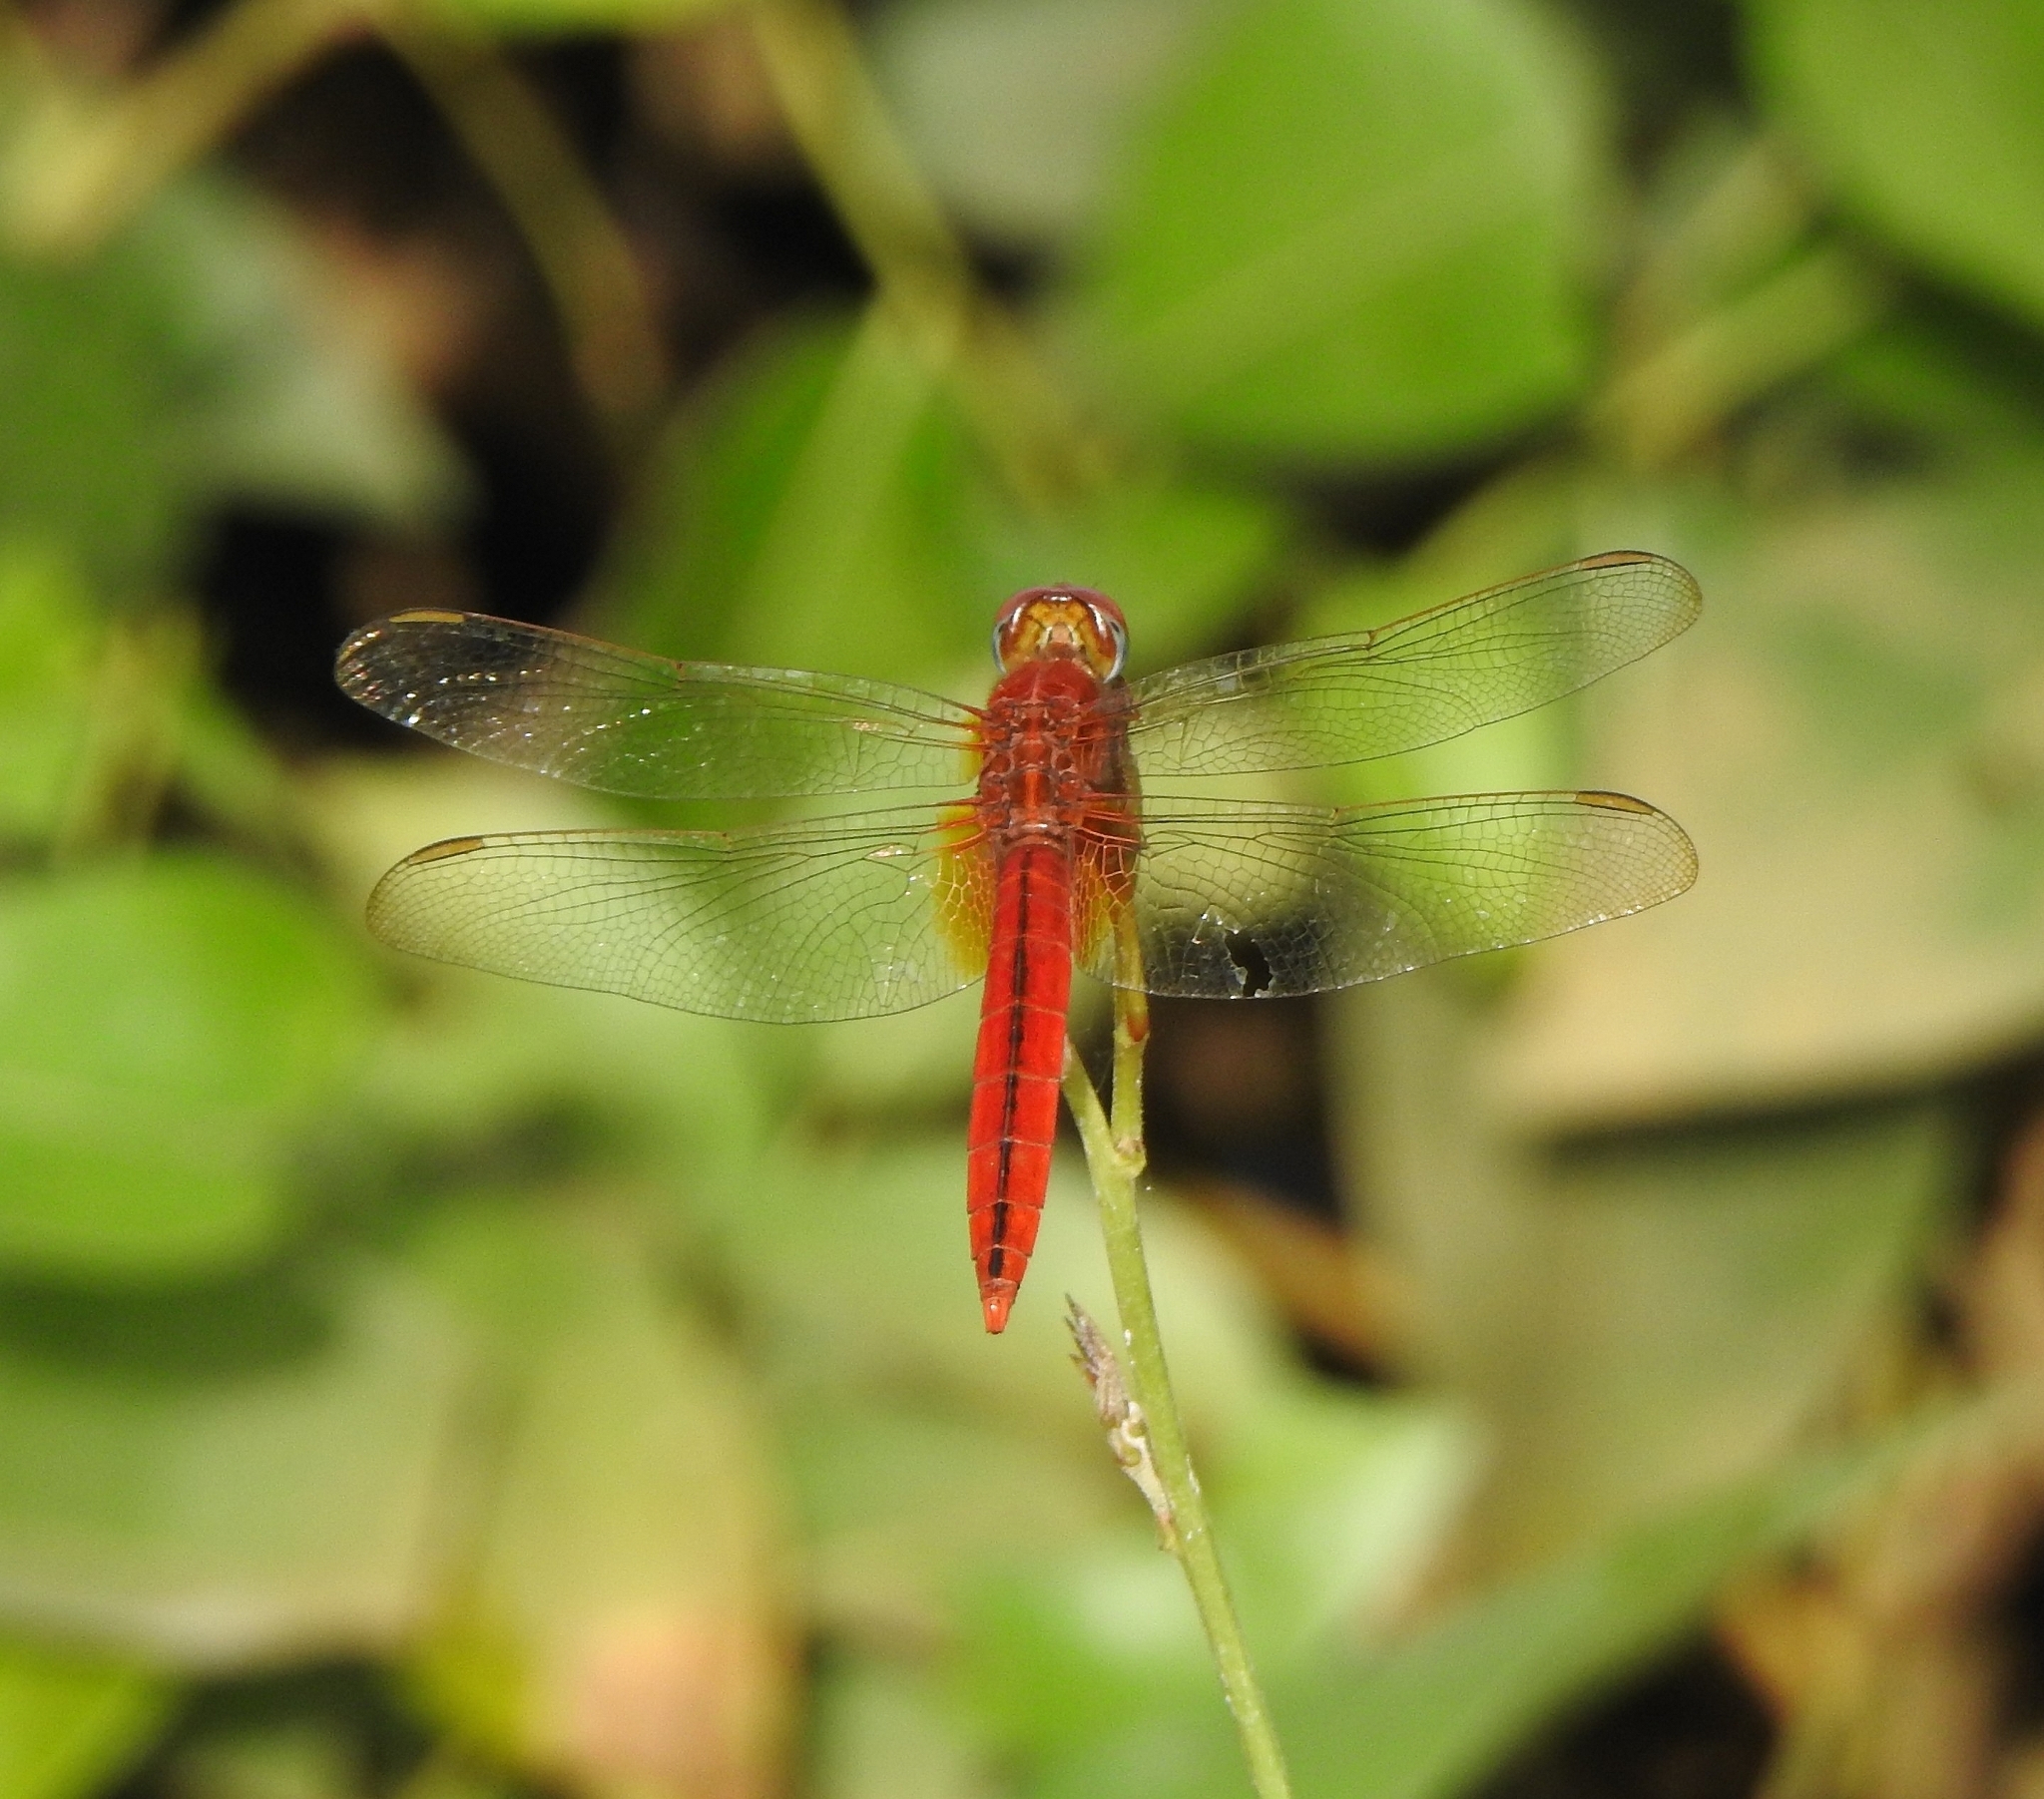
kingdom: Animalia
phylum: Arthropoda
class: Insecta
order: Odonata
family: Libellulidae
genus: Crocothemis
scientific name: Crocothemis servilia
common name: Scarlet skimmer
